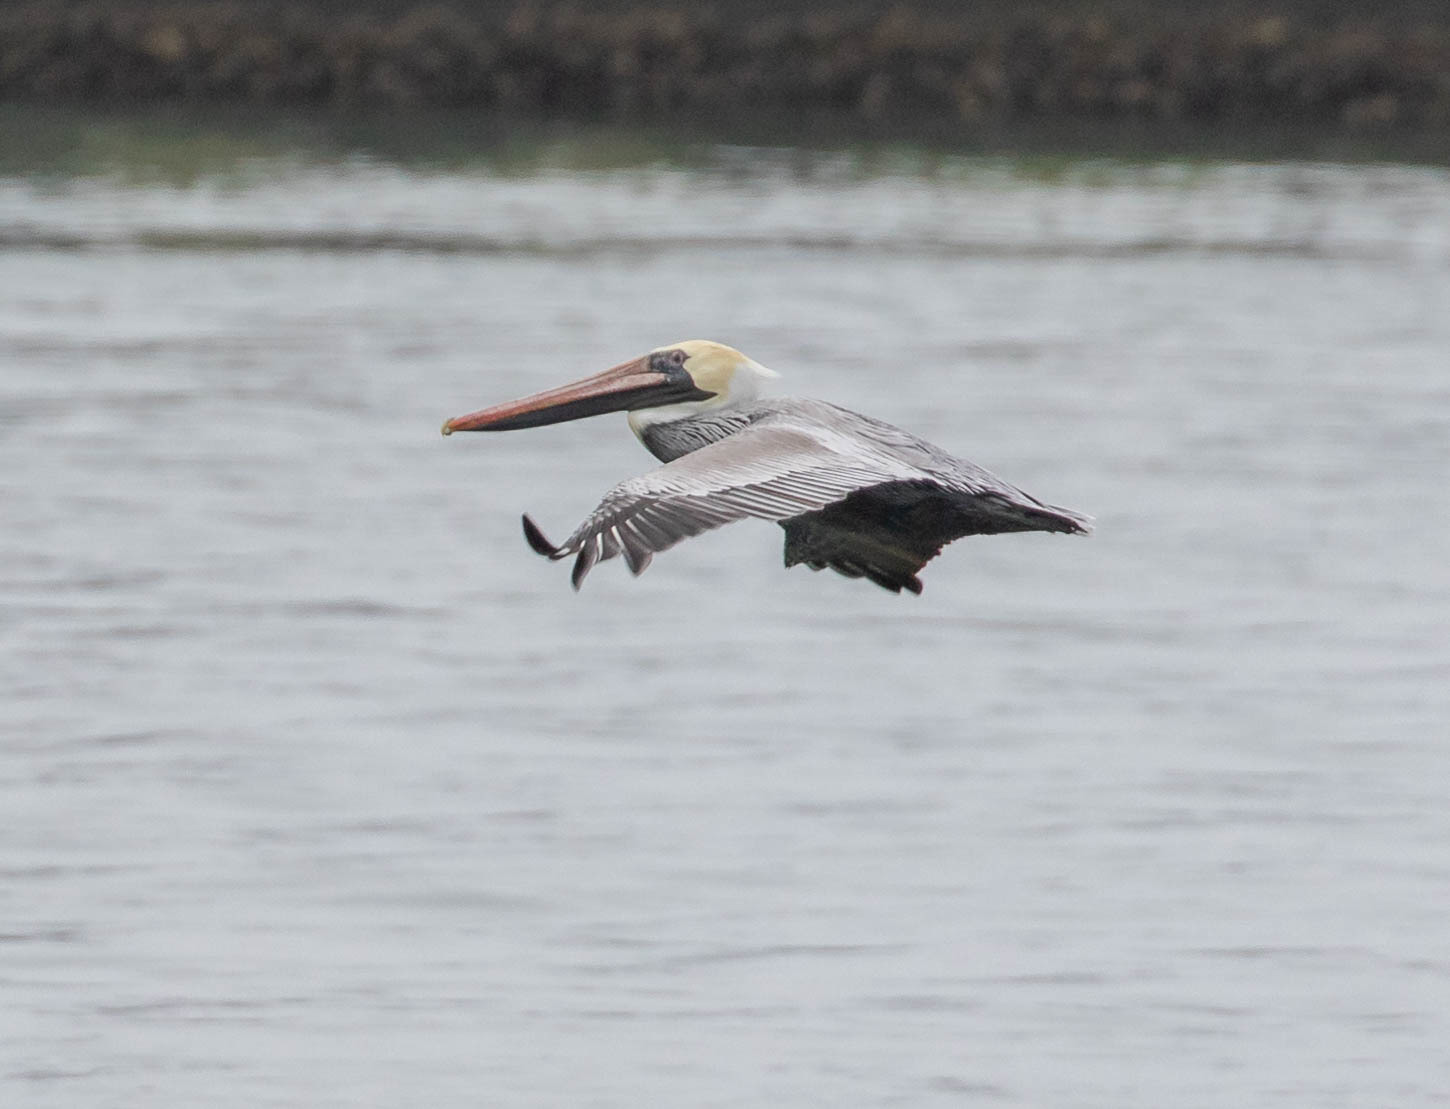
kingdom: Animalia
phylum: Chordata
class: Aves
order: Pelecaniformes
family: Pelecanidae
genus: Pelecanus
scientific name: Pelecanus occidentalis
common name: Brown pelican
